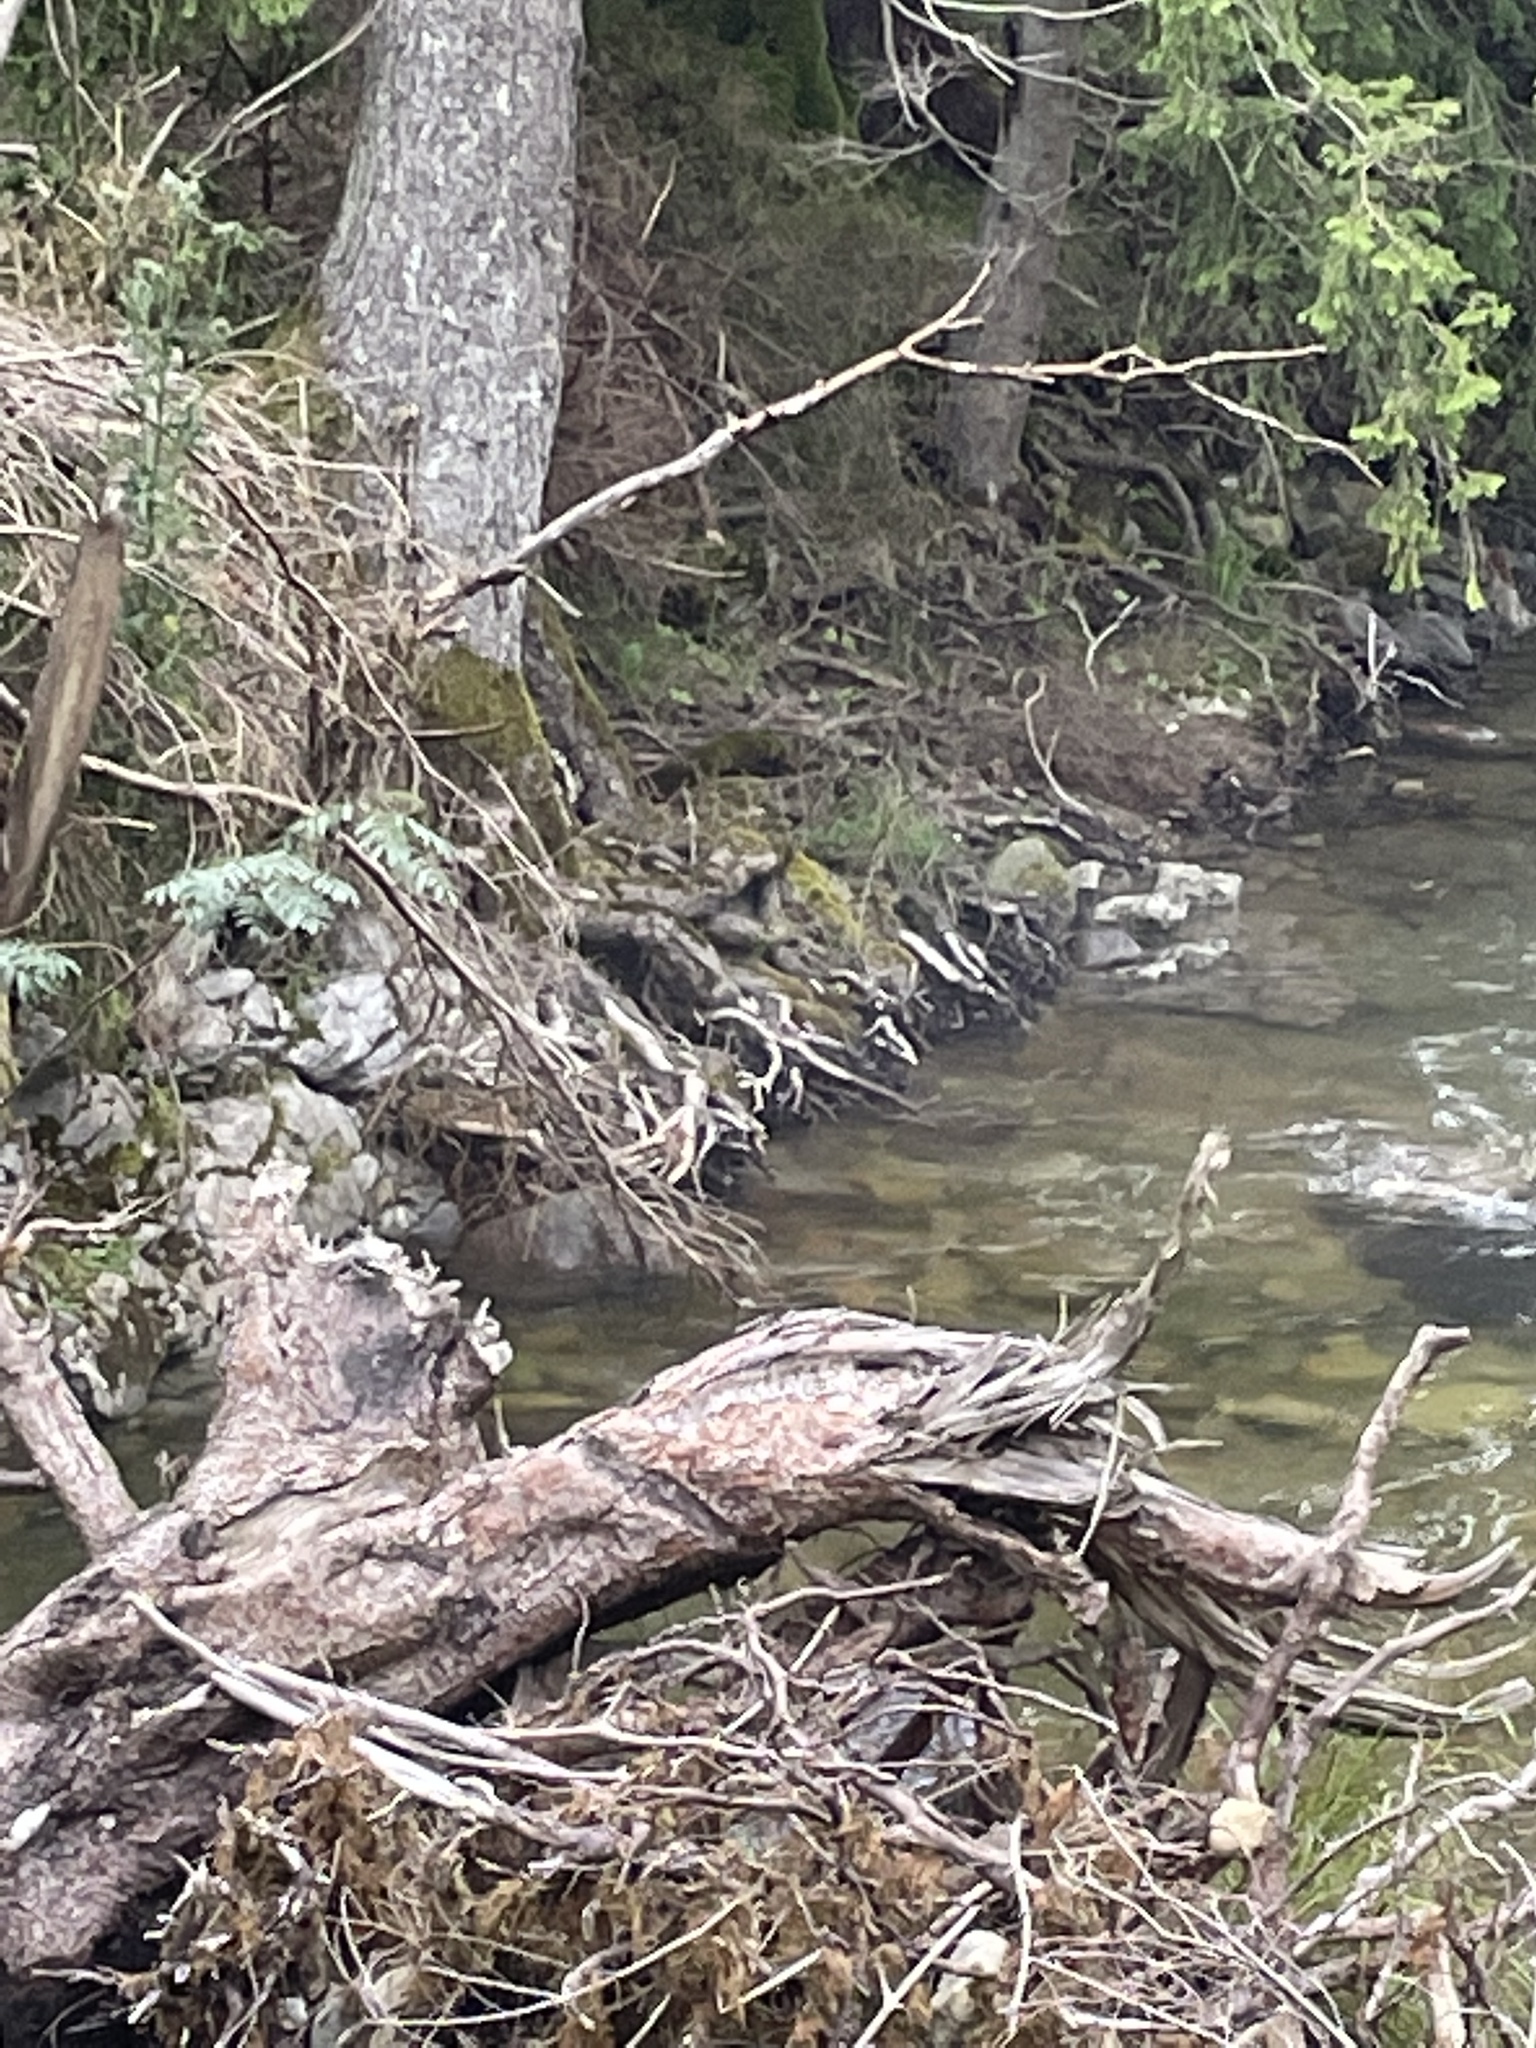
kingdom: Animalia
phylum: Chordata
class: Aves
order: Passeriformes
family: Motacillidae
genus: Motacilla
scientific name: Motacilla cinerea
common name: Grey wagtail
